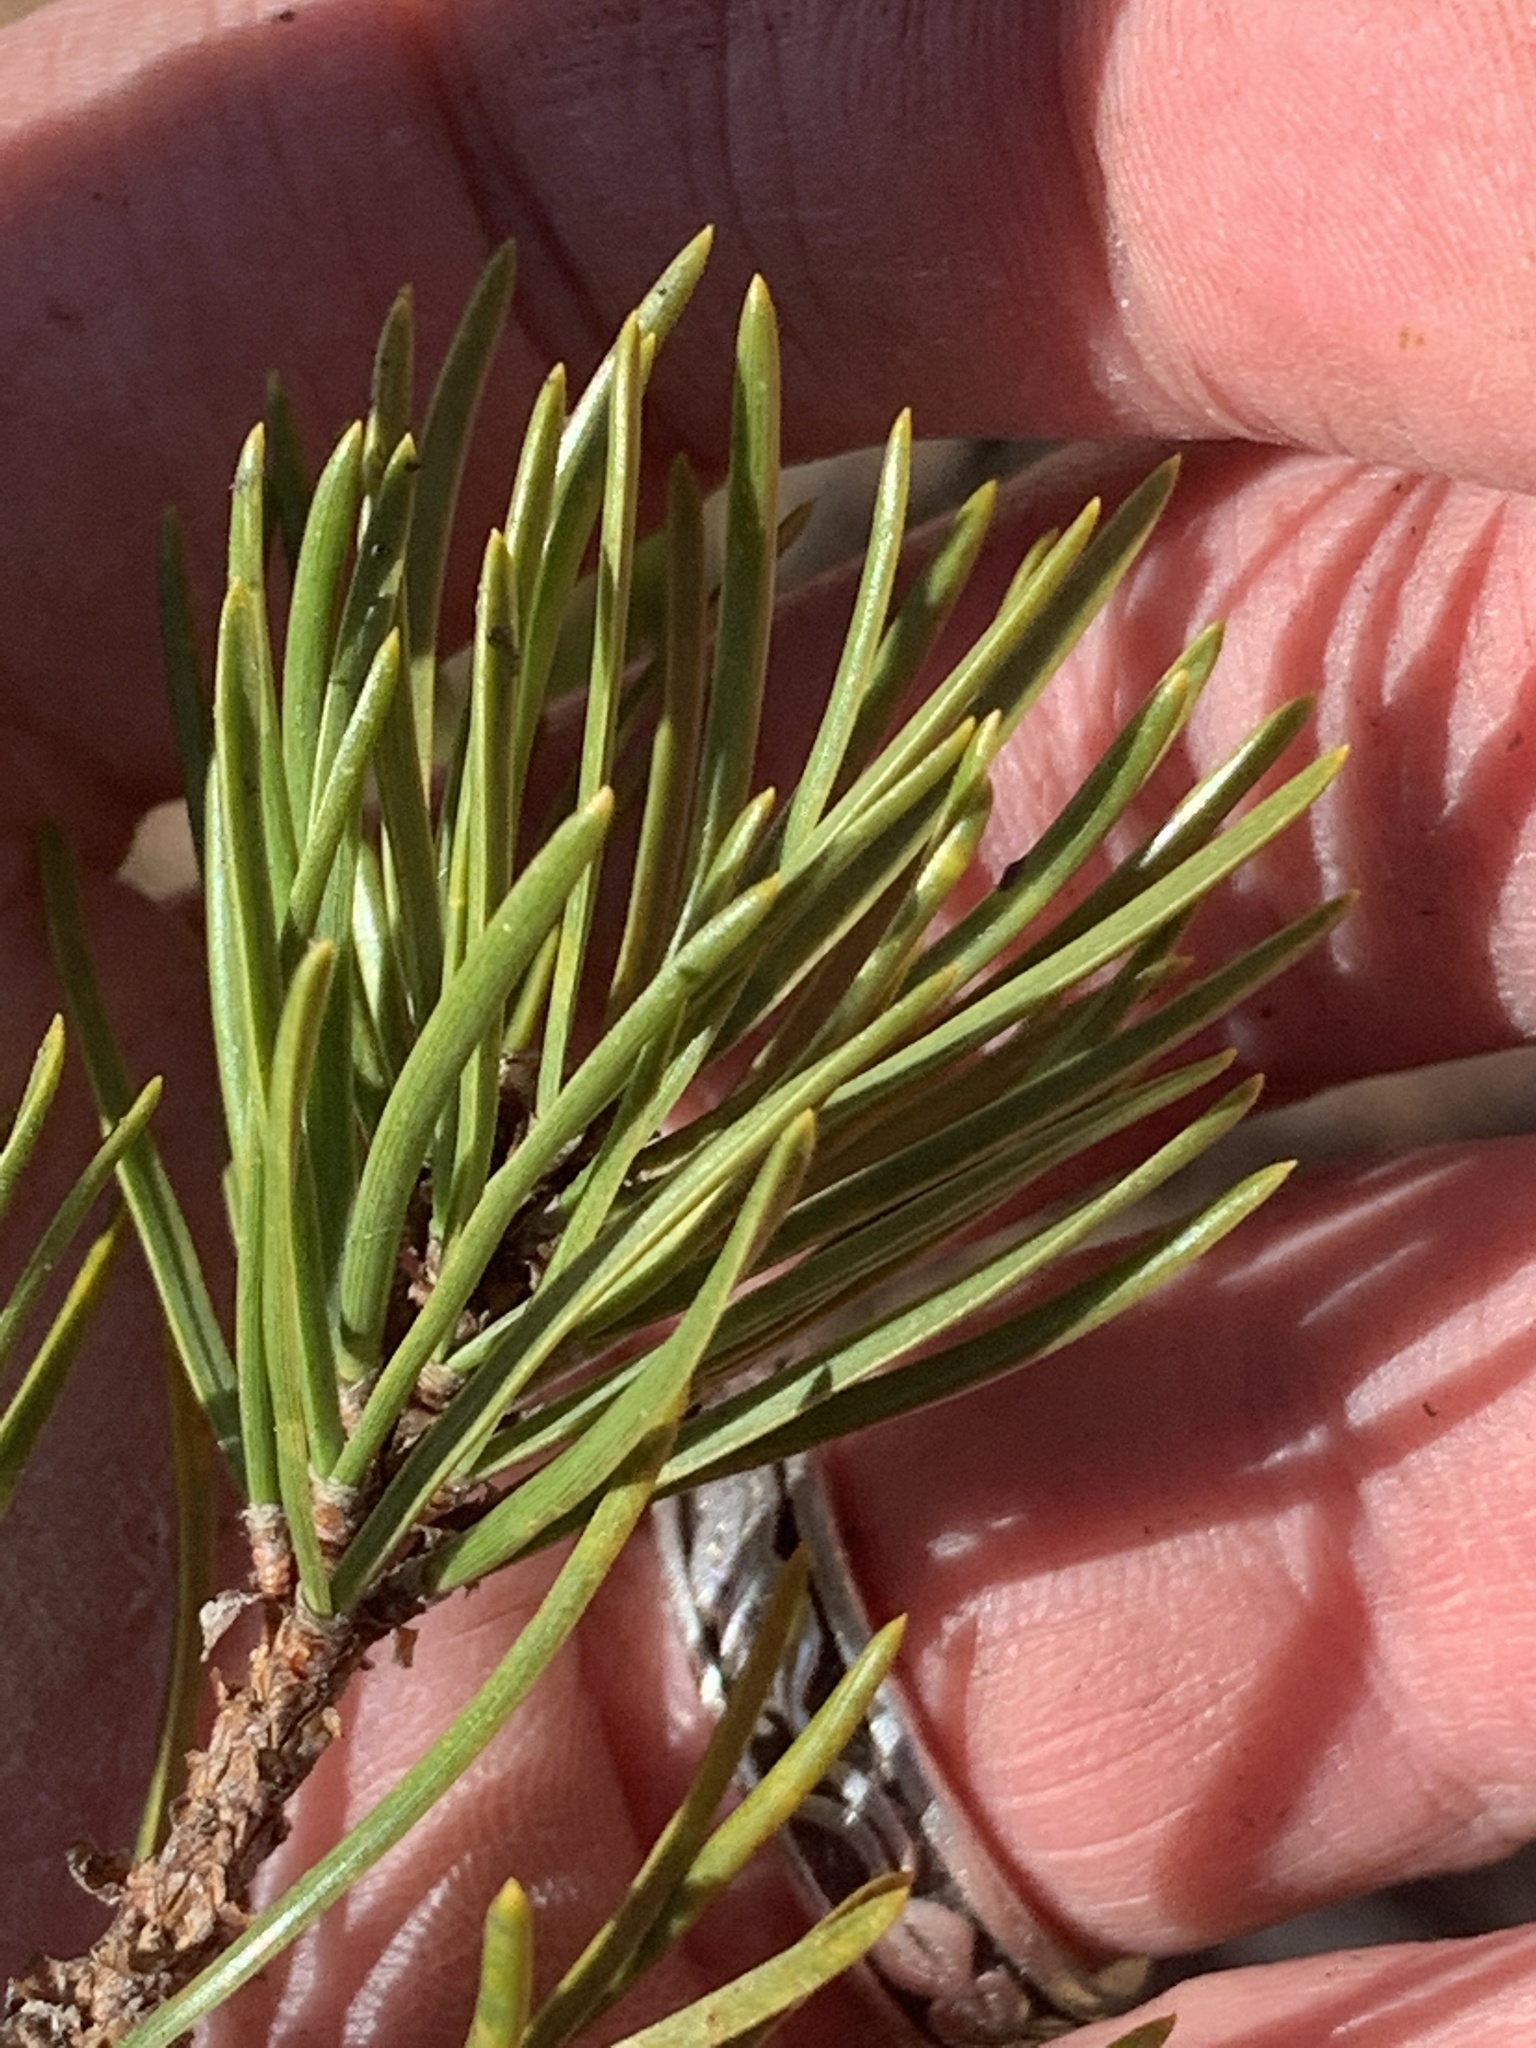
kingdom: Plantae
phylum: Tracheophyta
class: Pinopsida
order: Pinales
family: Pinaceae
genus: Pinus
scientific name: Pinus banksiana
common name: Jack pine
